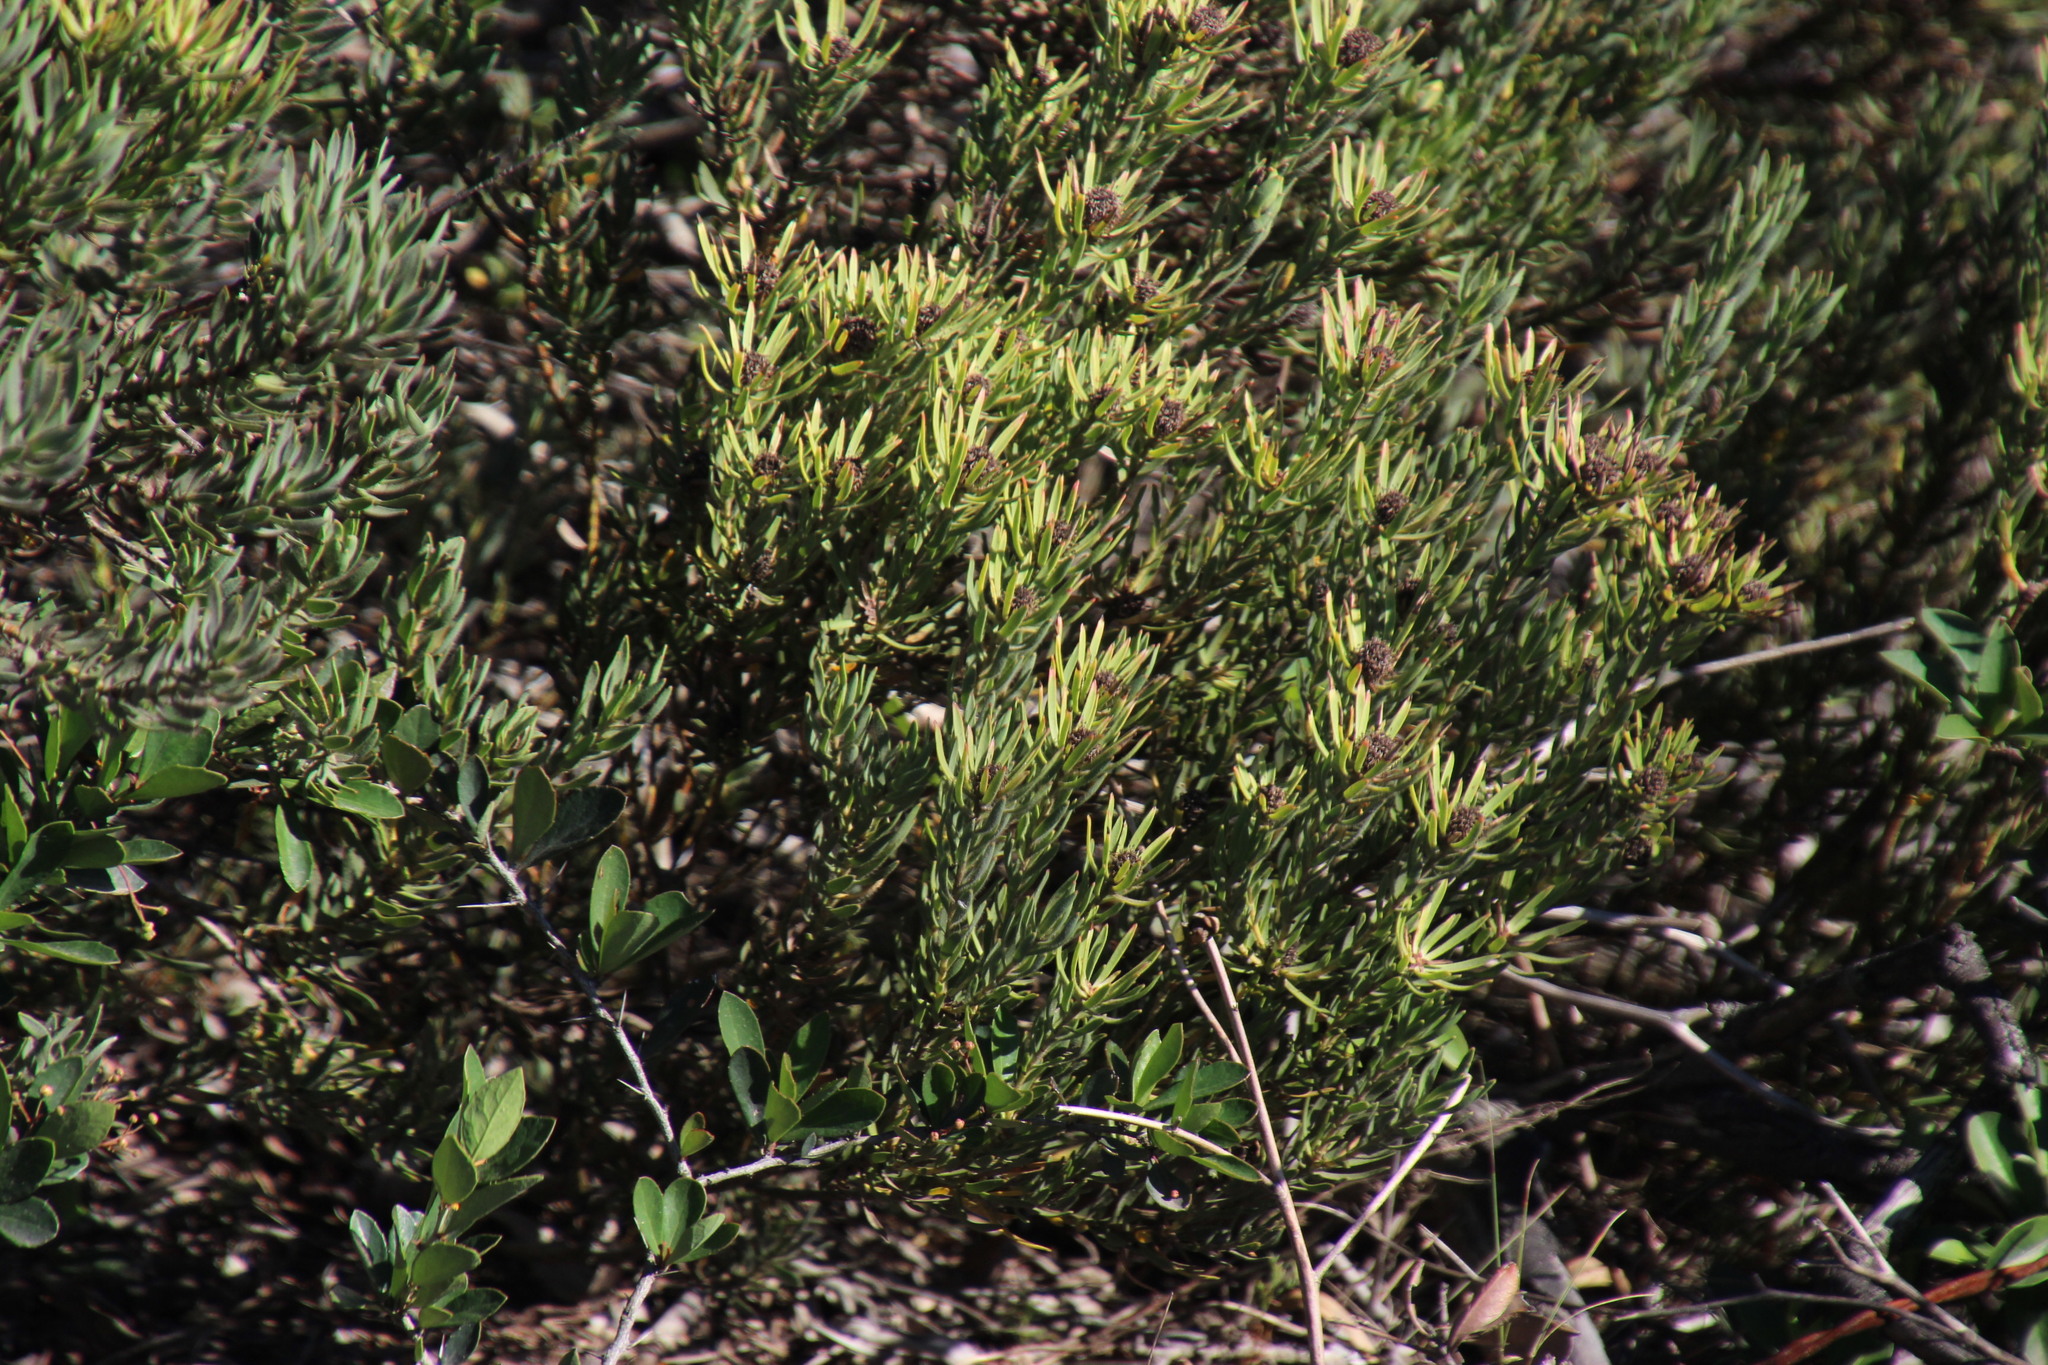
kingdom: Plantae
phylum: Tracheophyta
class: Magnoliopsida
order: Proteales
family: Proteaceae
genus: Leucadendron
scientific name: Leucadendron lanigerum
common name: Shale conebush
